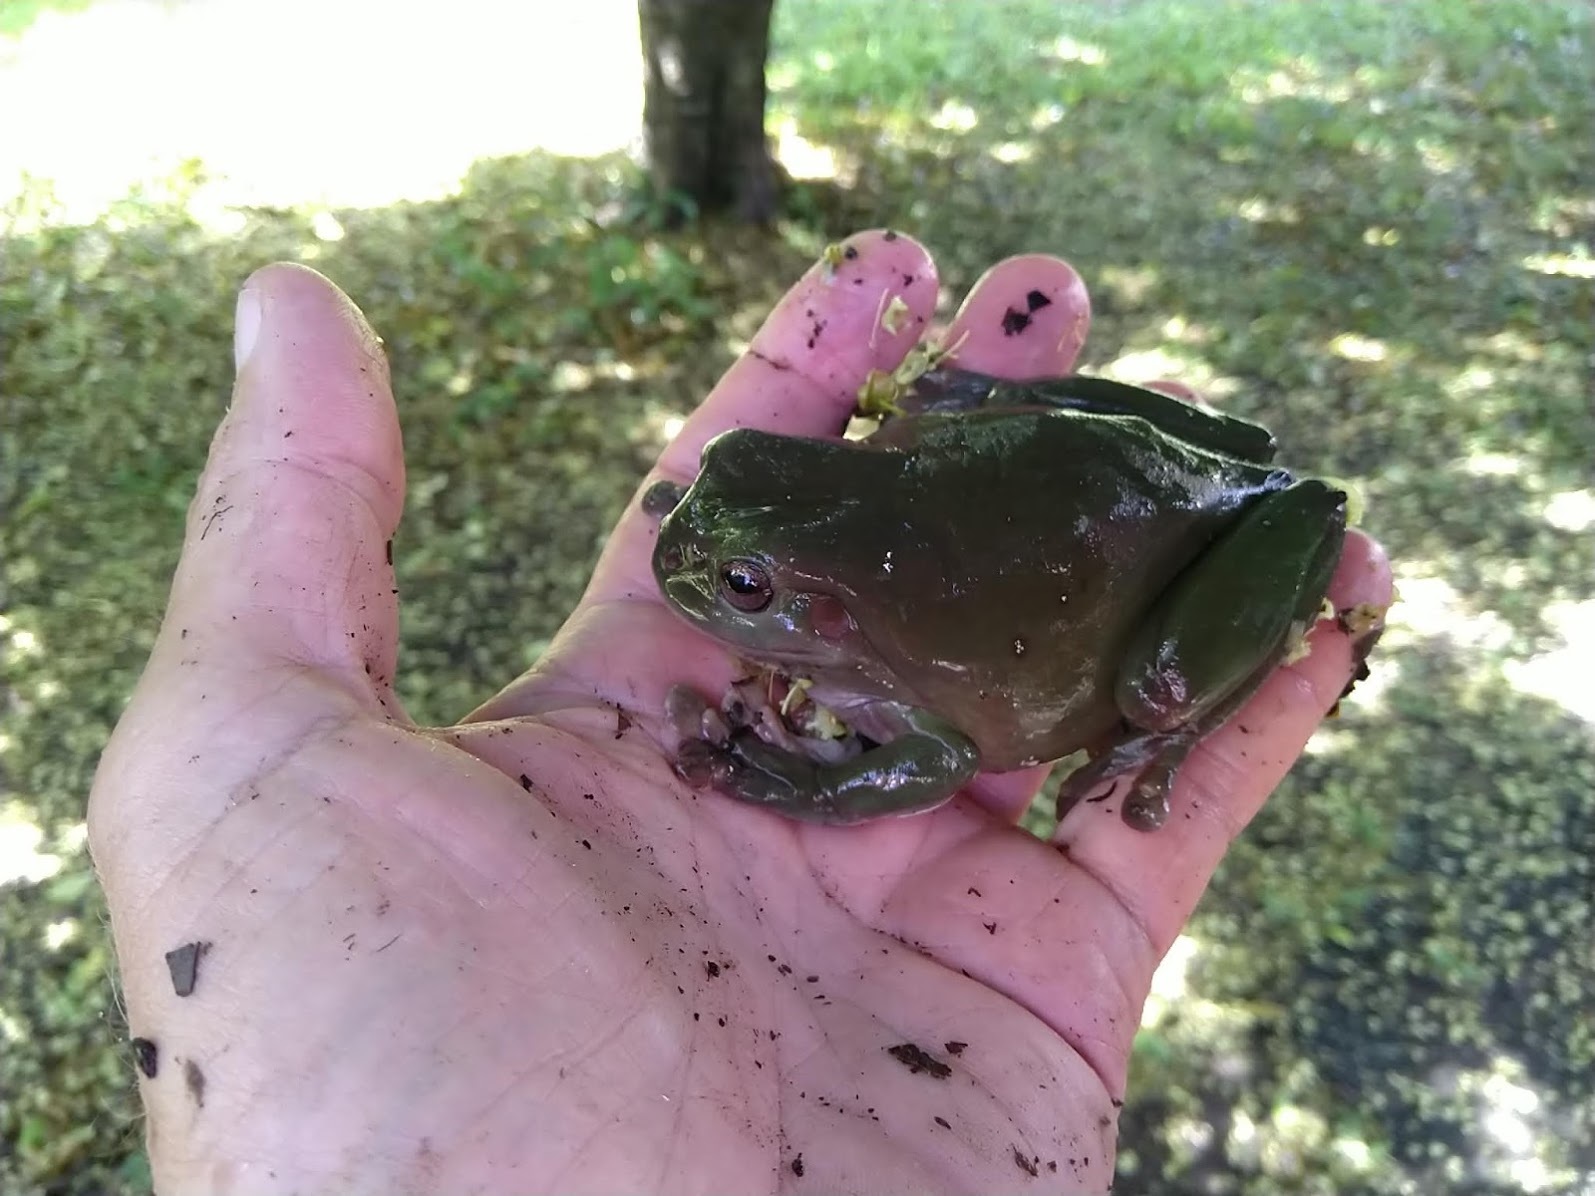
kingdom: Animalia
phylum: Chordata
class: Amphibia
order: Anura
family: Pelodryadidae
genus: Ranoidea
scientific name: Ranoidea caerulea
